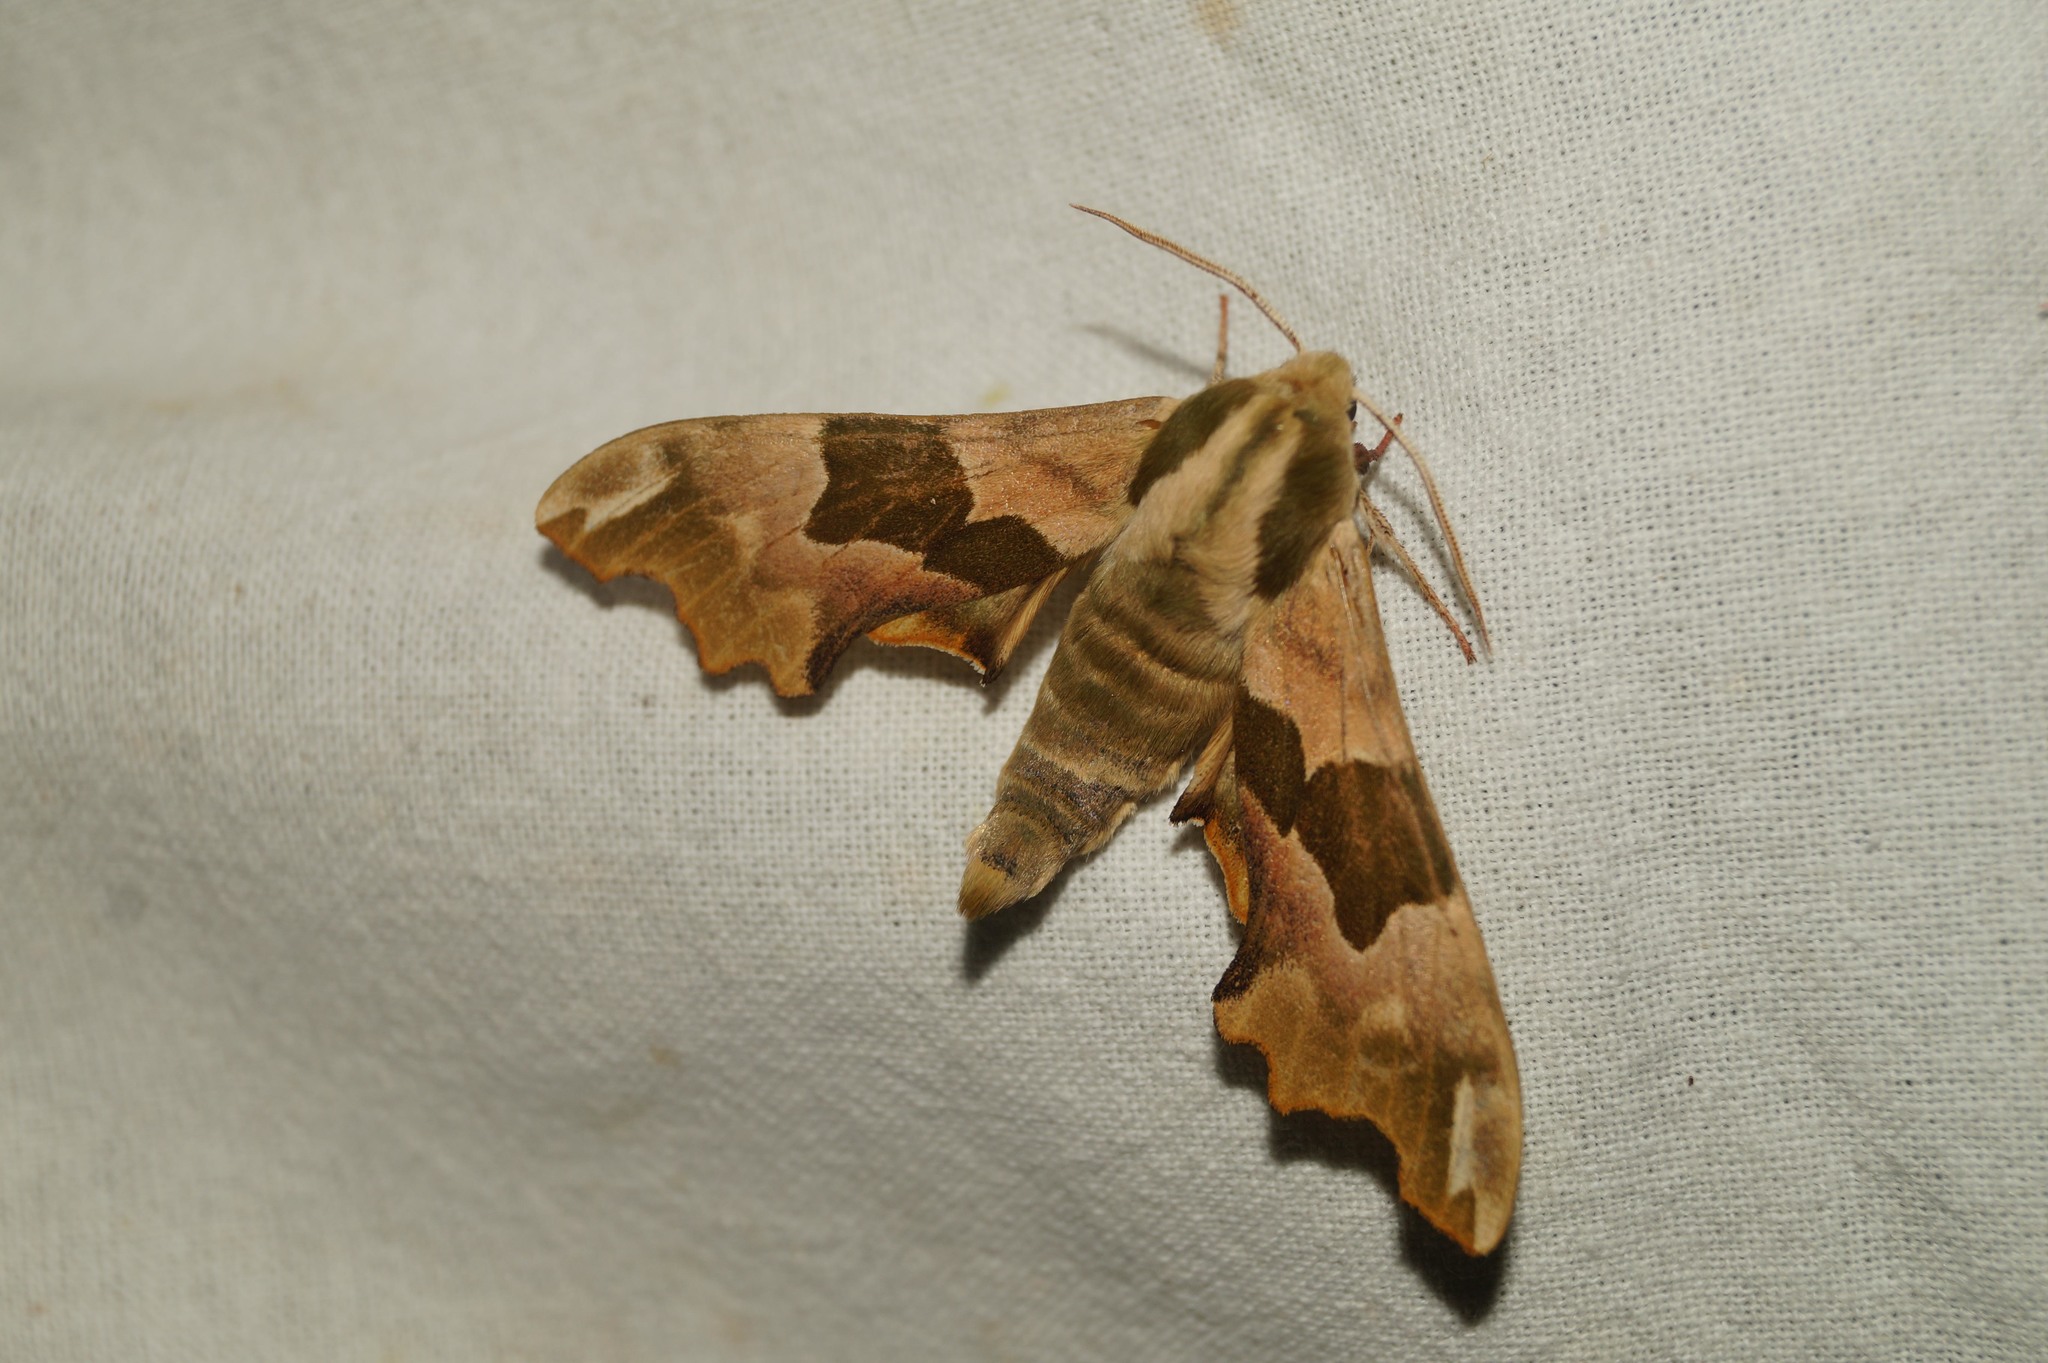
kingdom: Animalia
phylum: Arthropoda
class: Insecta
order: Lepidoptera
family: Sphingidae
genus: Mimas
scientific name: Mimas tiliae
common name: Lime hawk-moth
